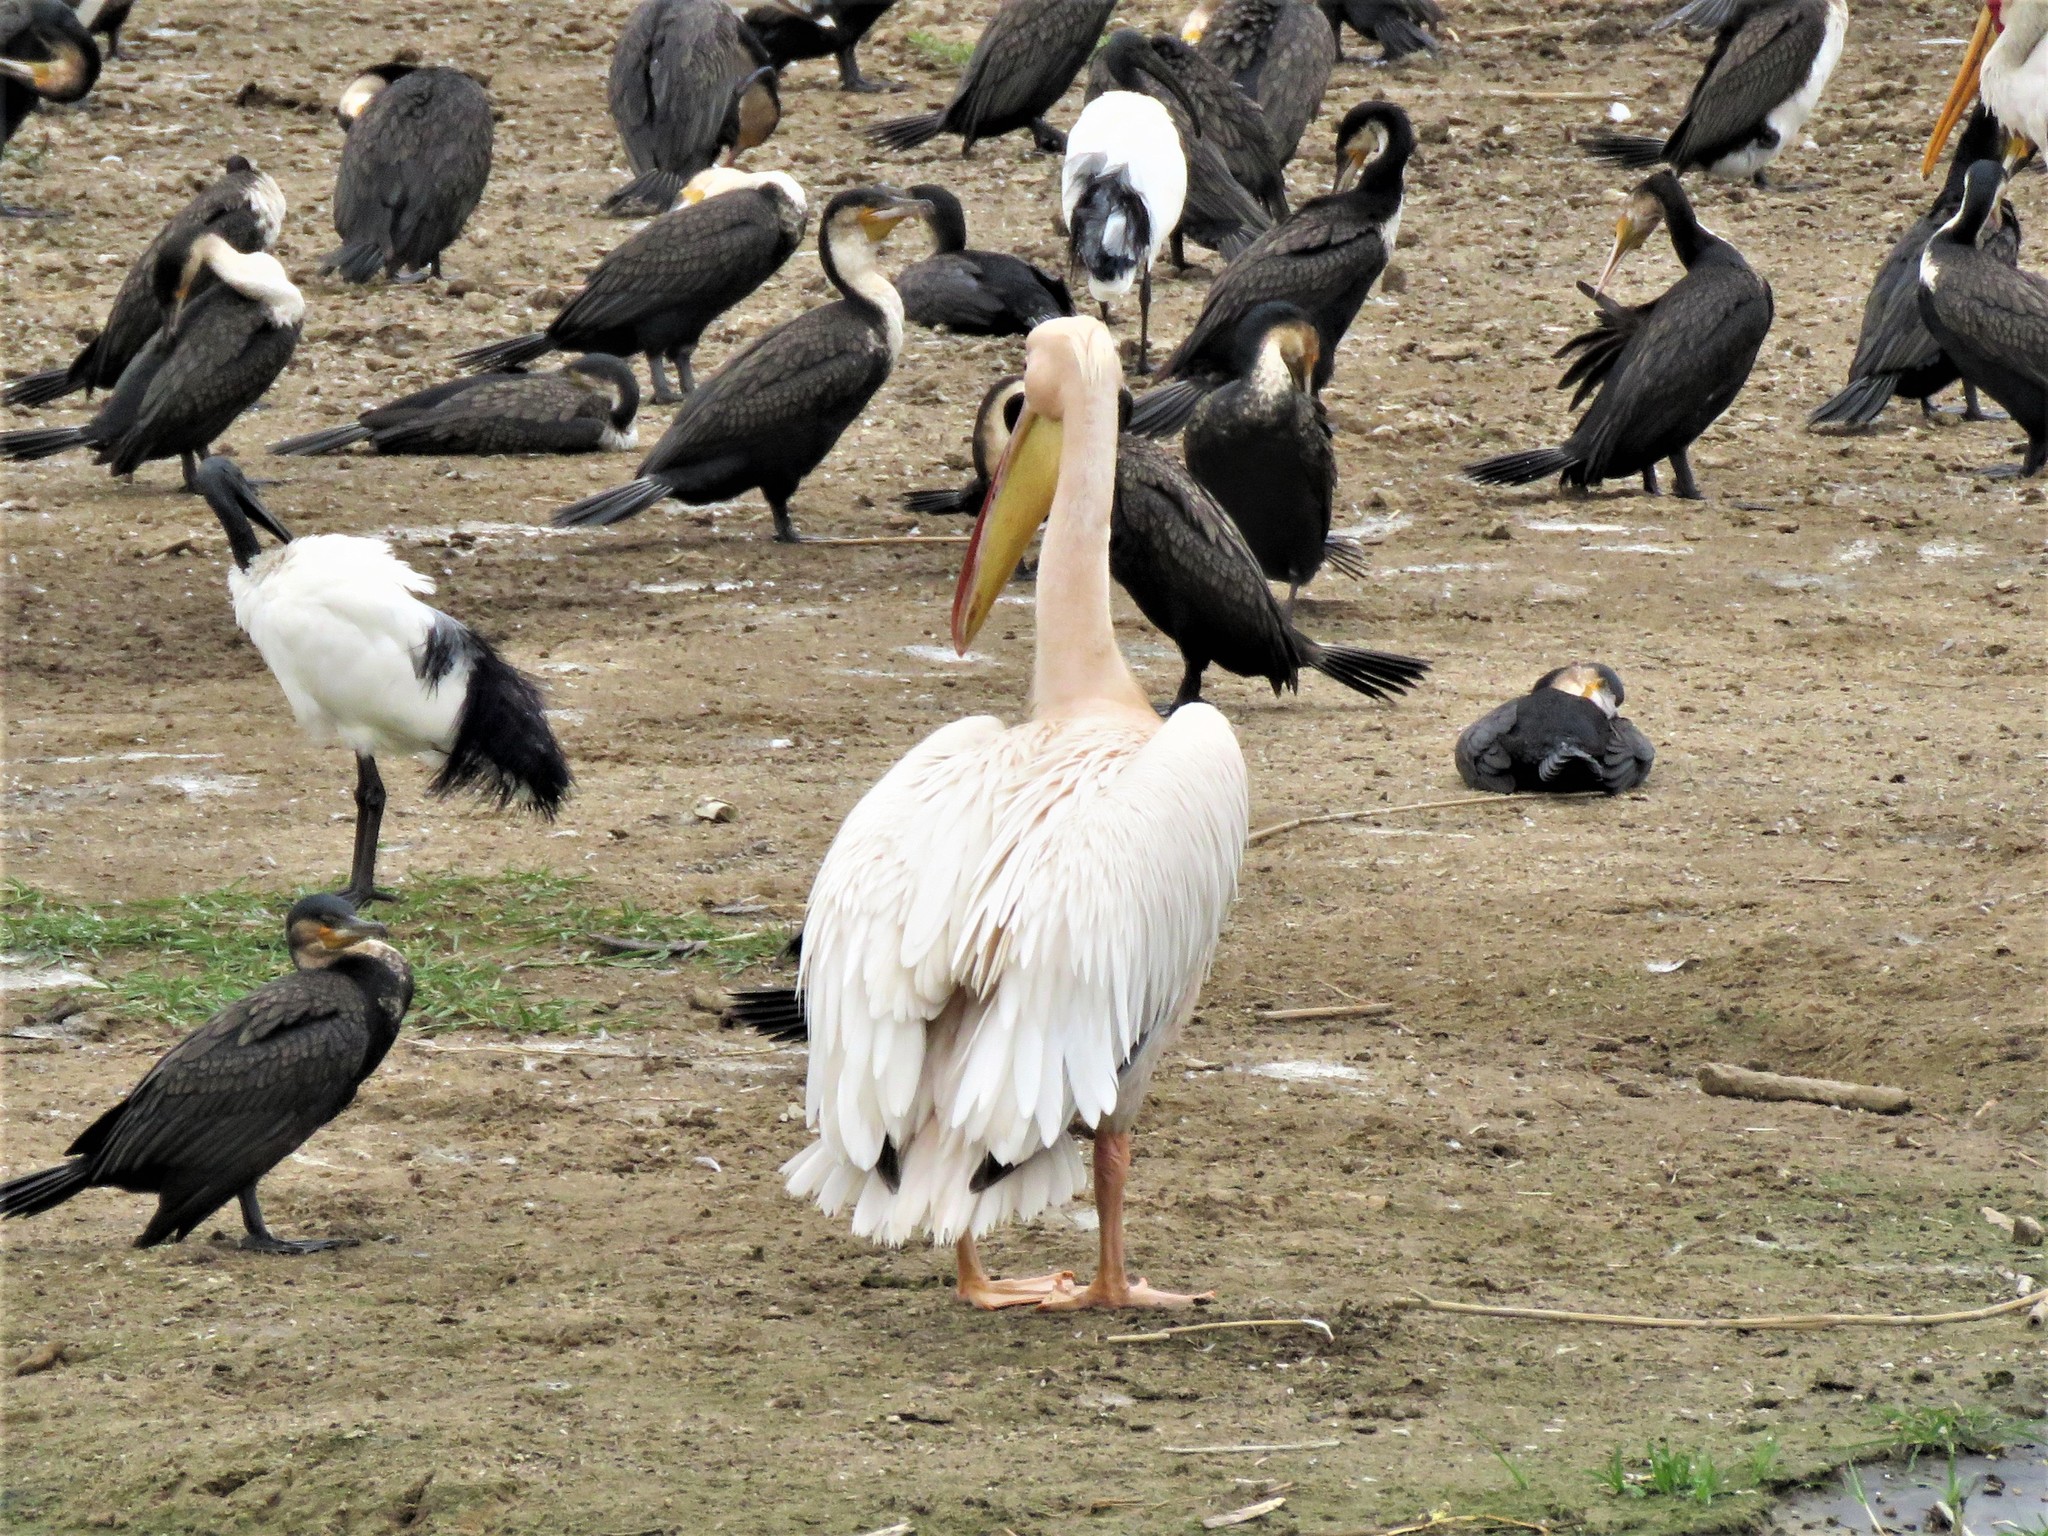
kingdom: Animalia
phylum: Chordata
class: Aves
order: Pelecaniformes
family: Pelecanidae
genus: Pelecanus
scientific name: Pelecanus onocrotalus
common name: Great white pelican
